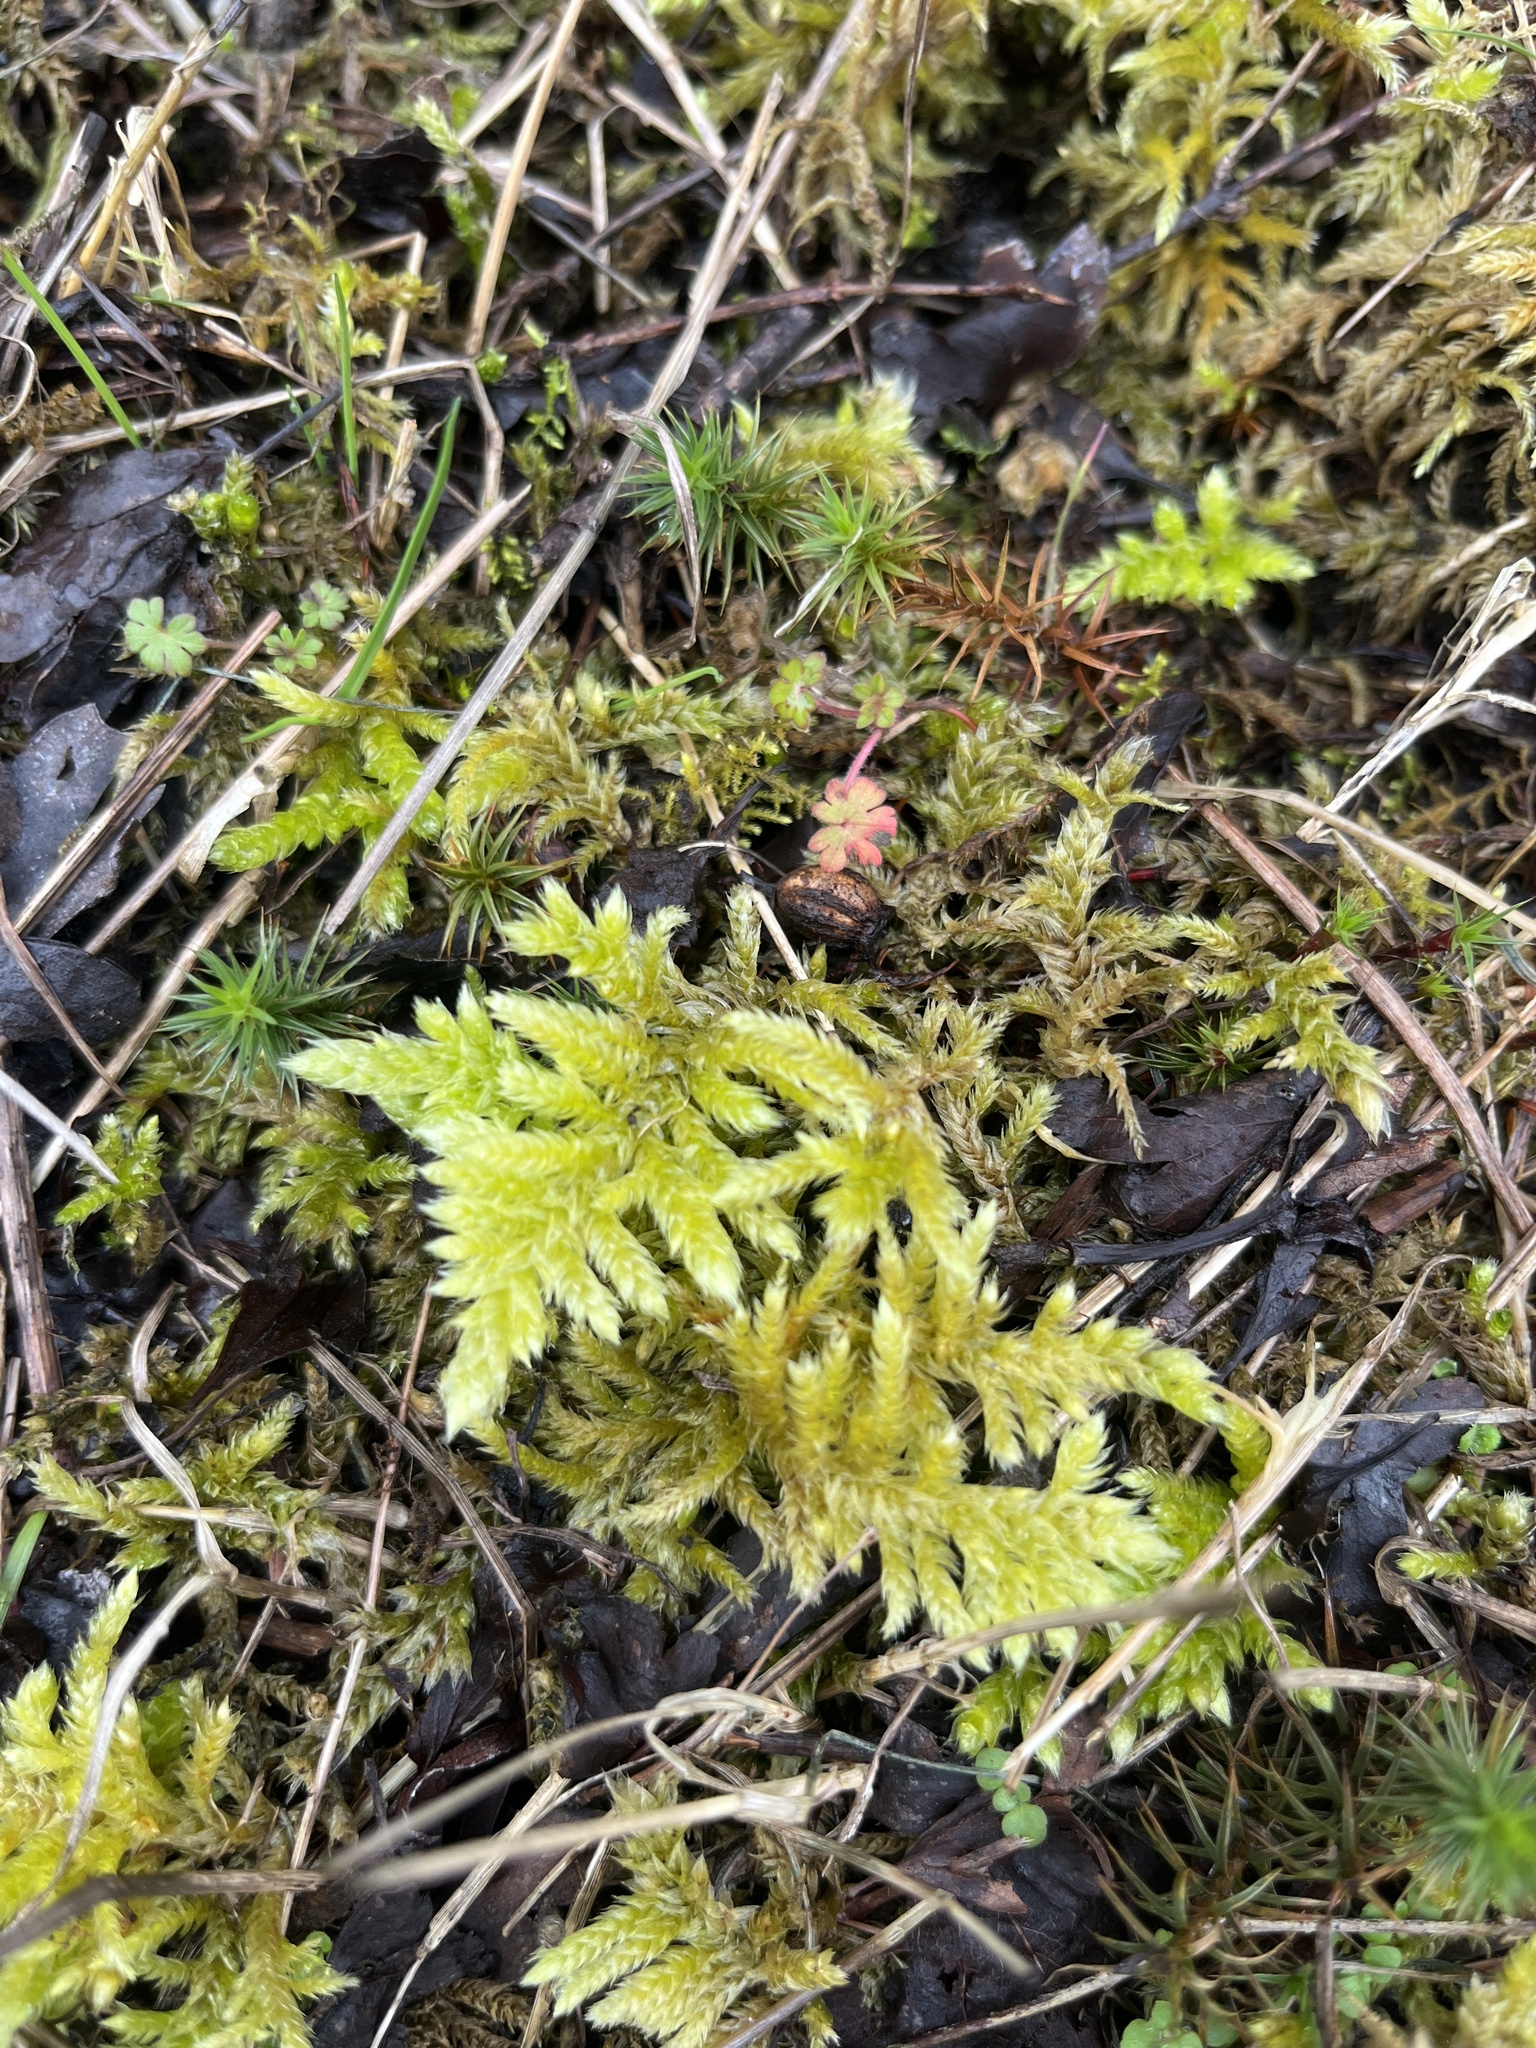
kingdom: Plantae
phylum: Bryophyta
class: Bryopsida
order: Hypnales
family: Brachytheciaceae
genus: Homalothecium
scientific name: Homalothecium megaptilum
